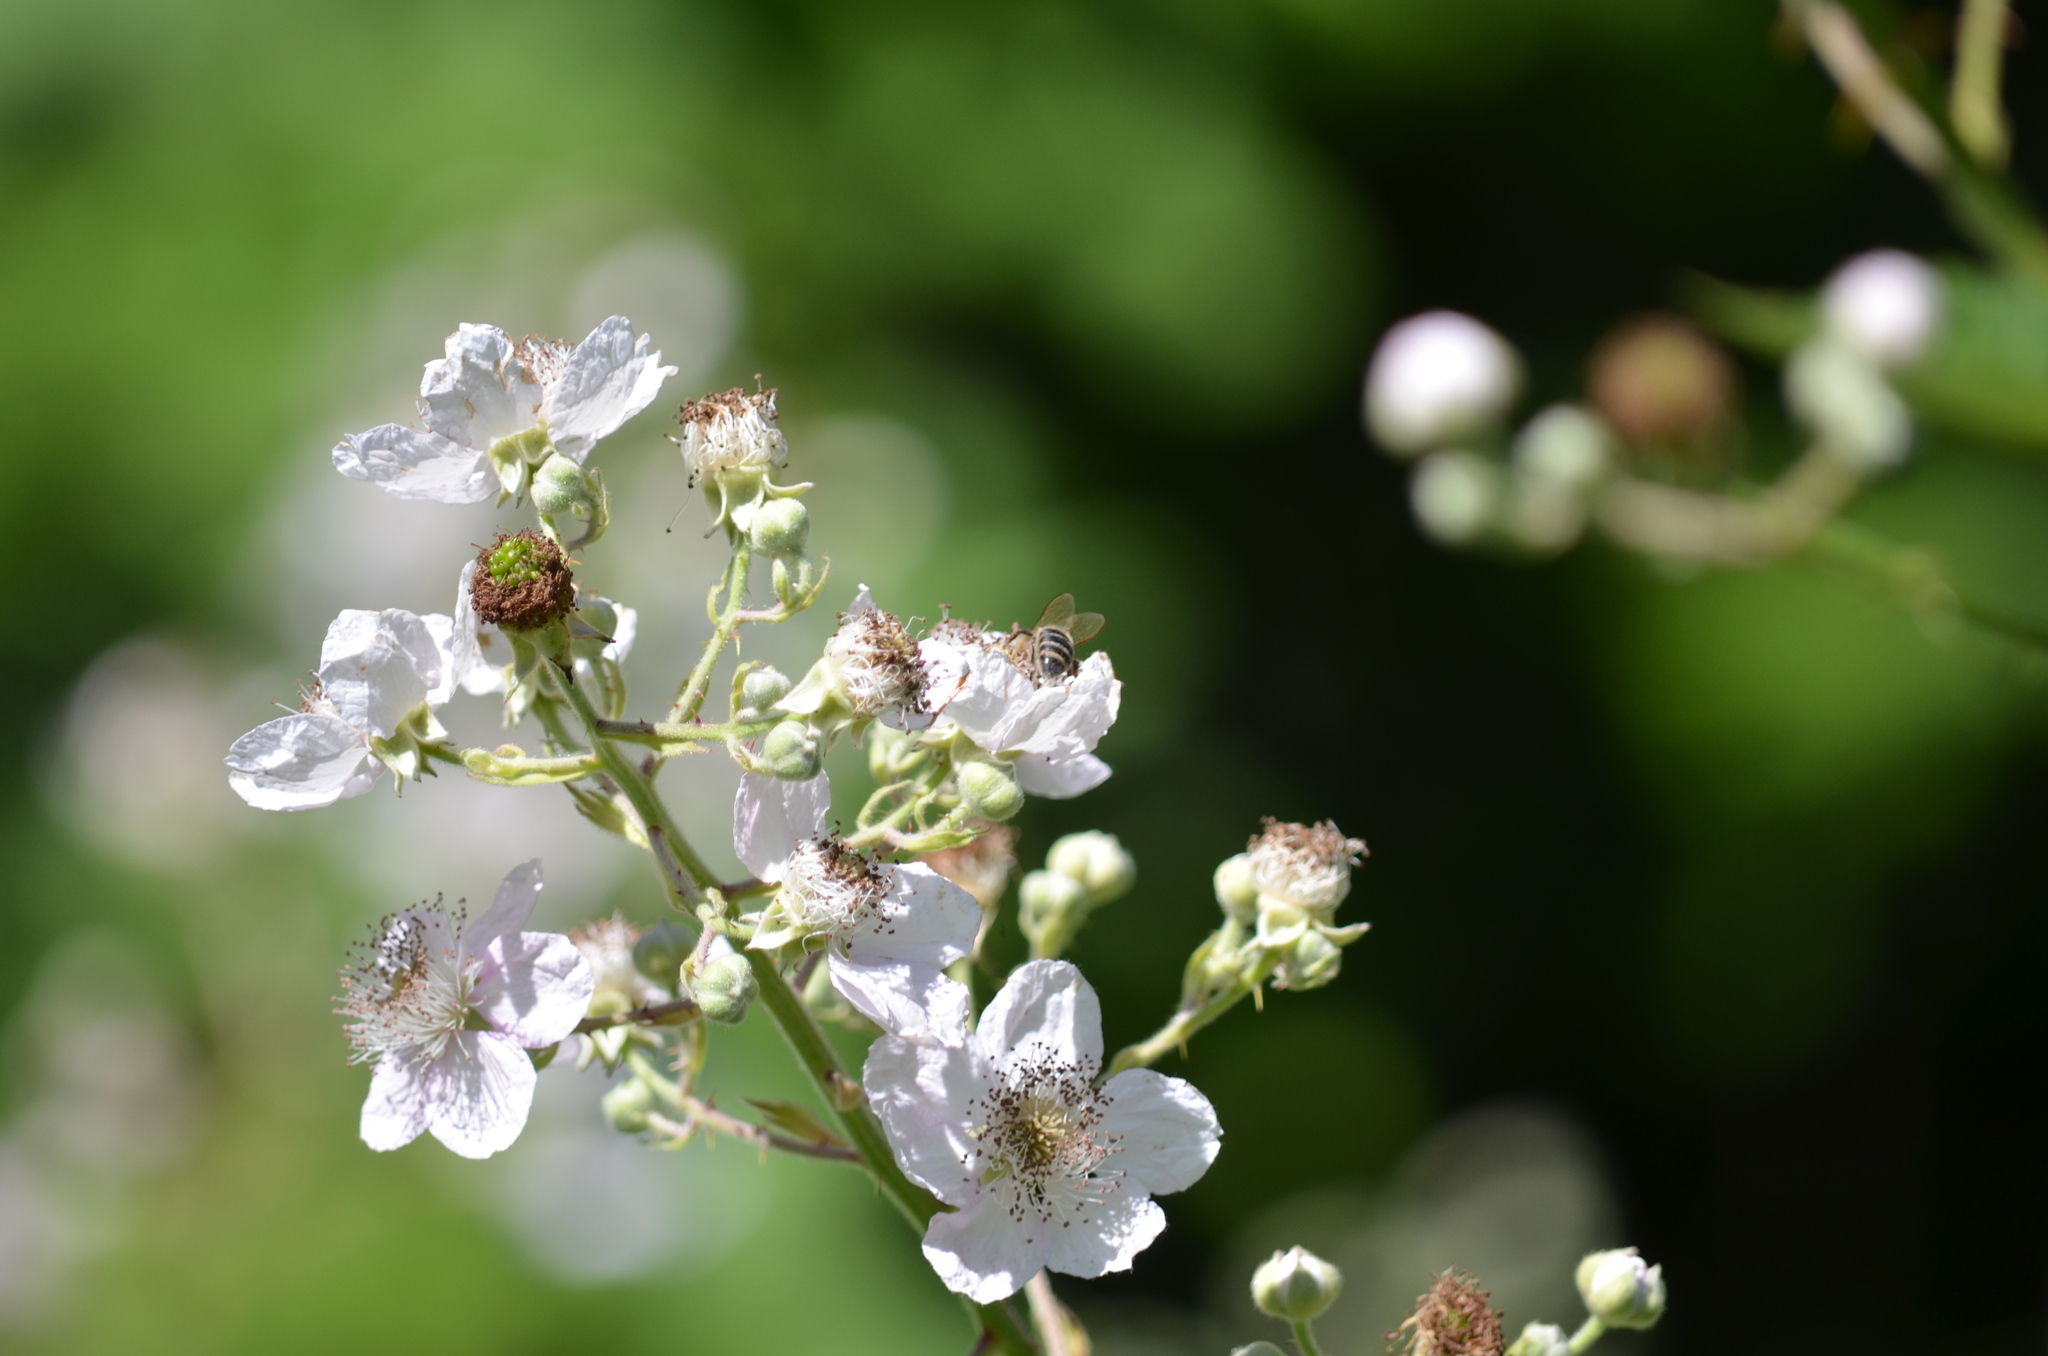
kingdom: Animalia
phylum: Arthropoda
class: Insecta
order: Hymenoptera
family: Apidae
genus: Apis
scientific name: Apis mellifera
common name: Honey bee
